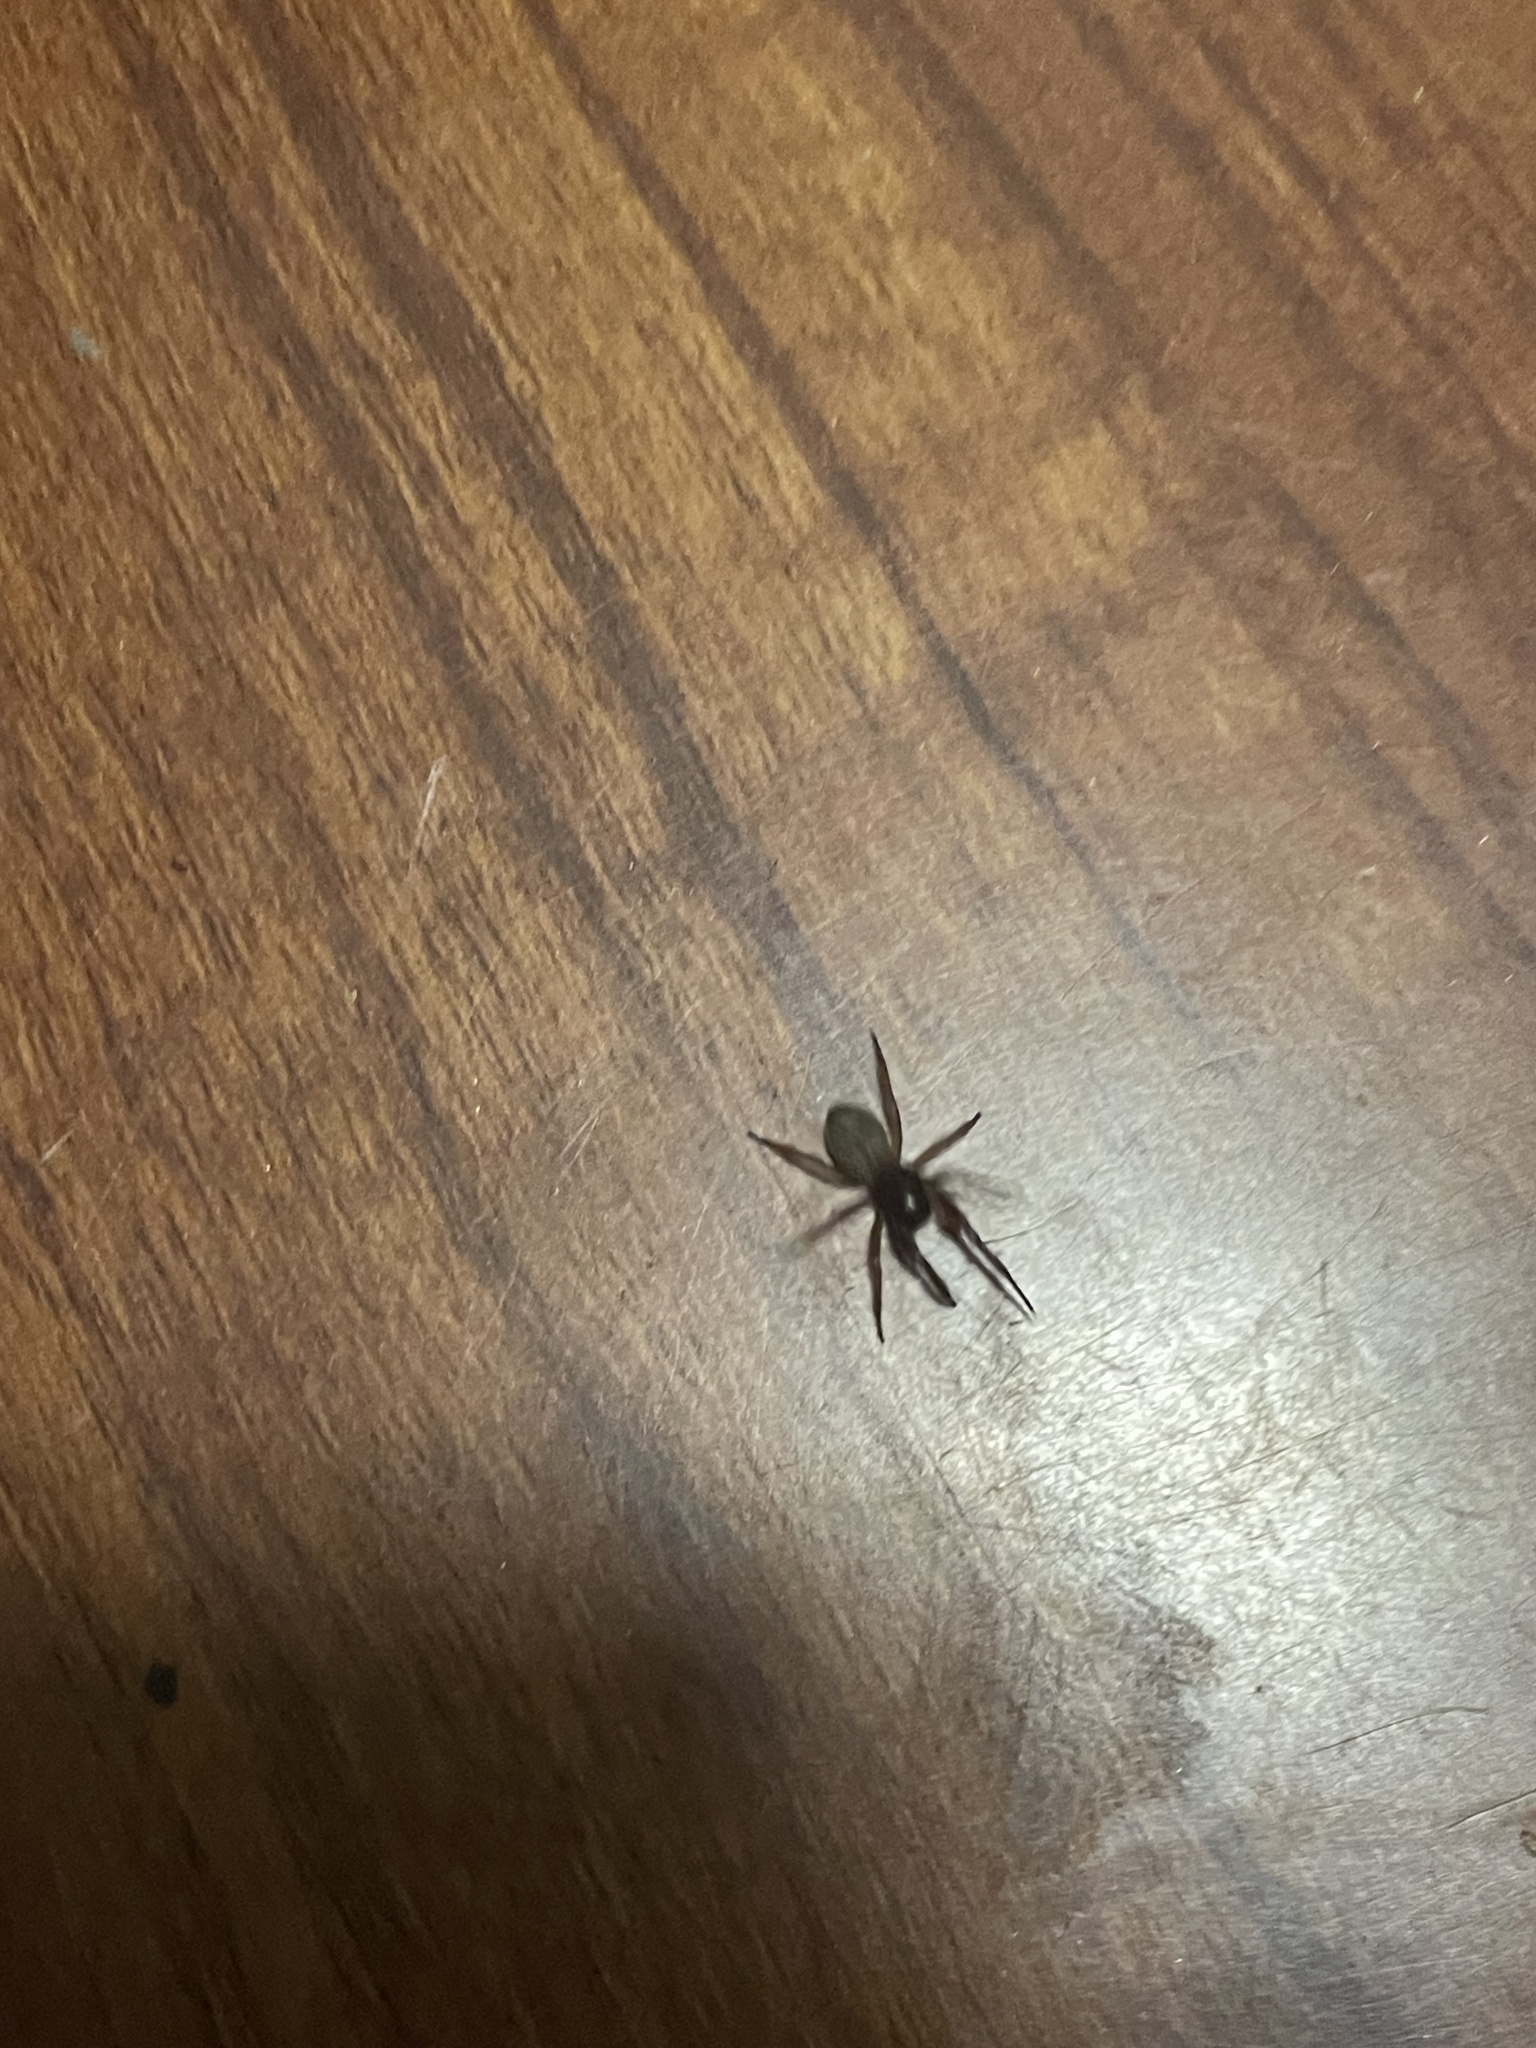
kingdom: Animalia
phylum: Arthropoda
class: Arachnida
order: Araneae
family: Trachelidae
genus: Trachelas
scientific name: Trachelas pacificus
